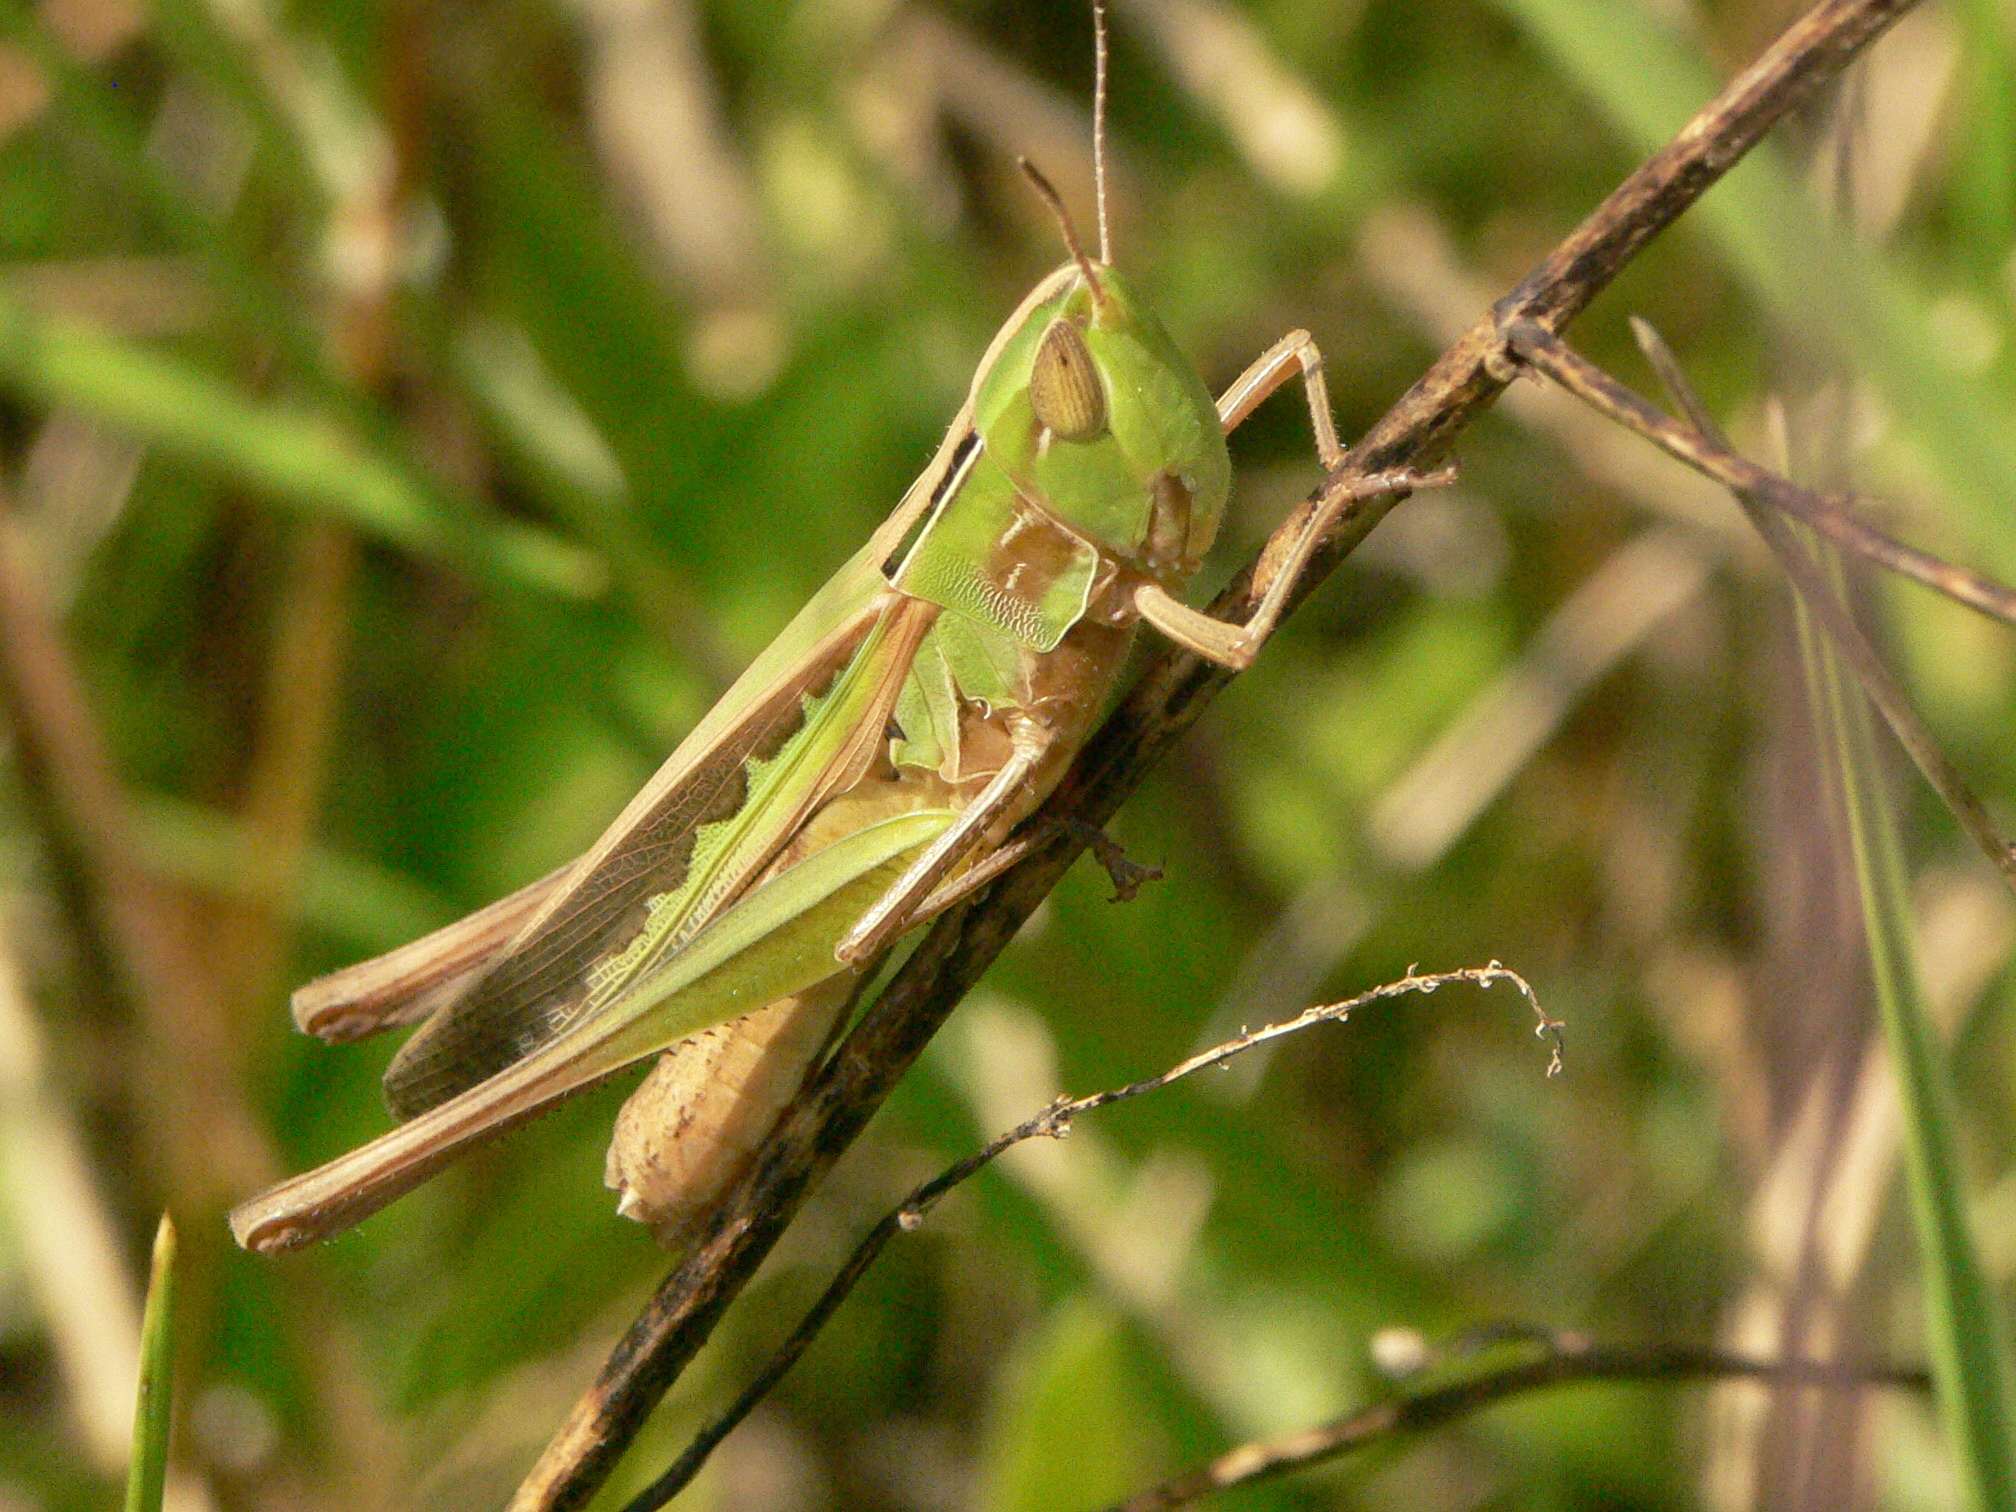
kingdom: Animalia
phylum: Arthropoda
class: Insecta
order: Orthoptera
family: Acrididae
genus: Syrbula
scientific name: Syrbula admirabilis
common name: Handsome grasshopper
